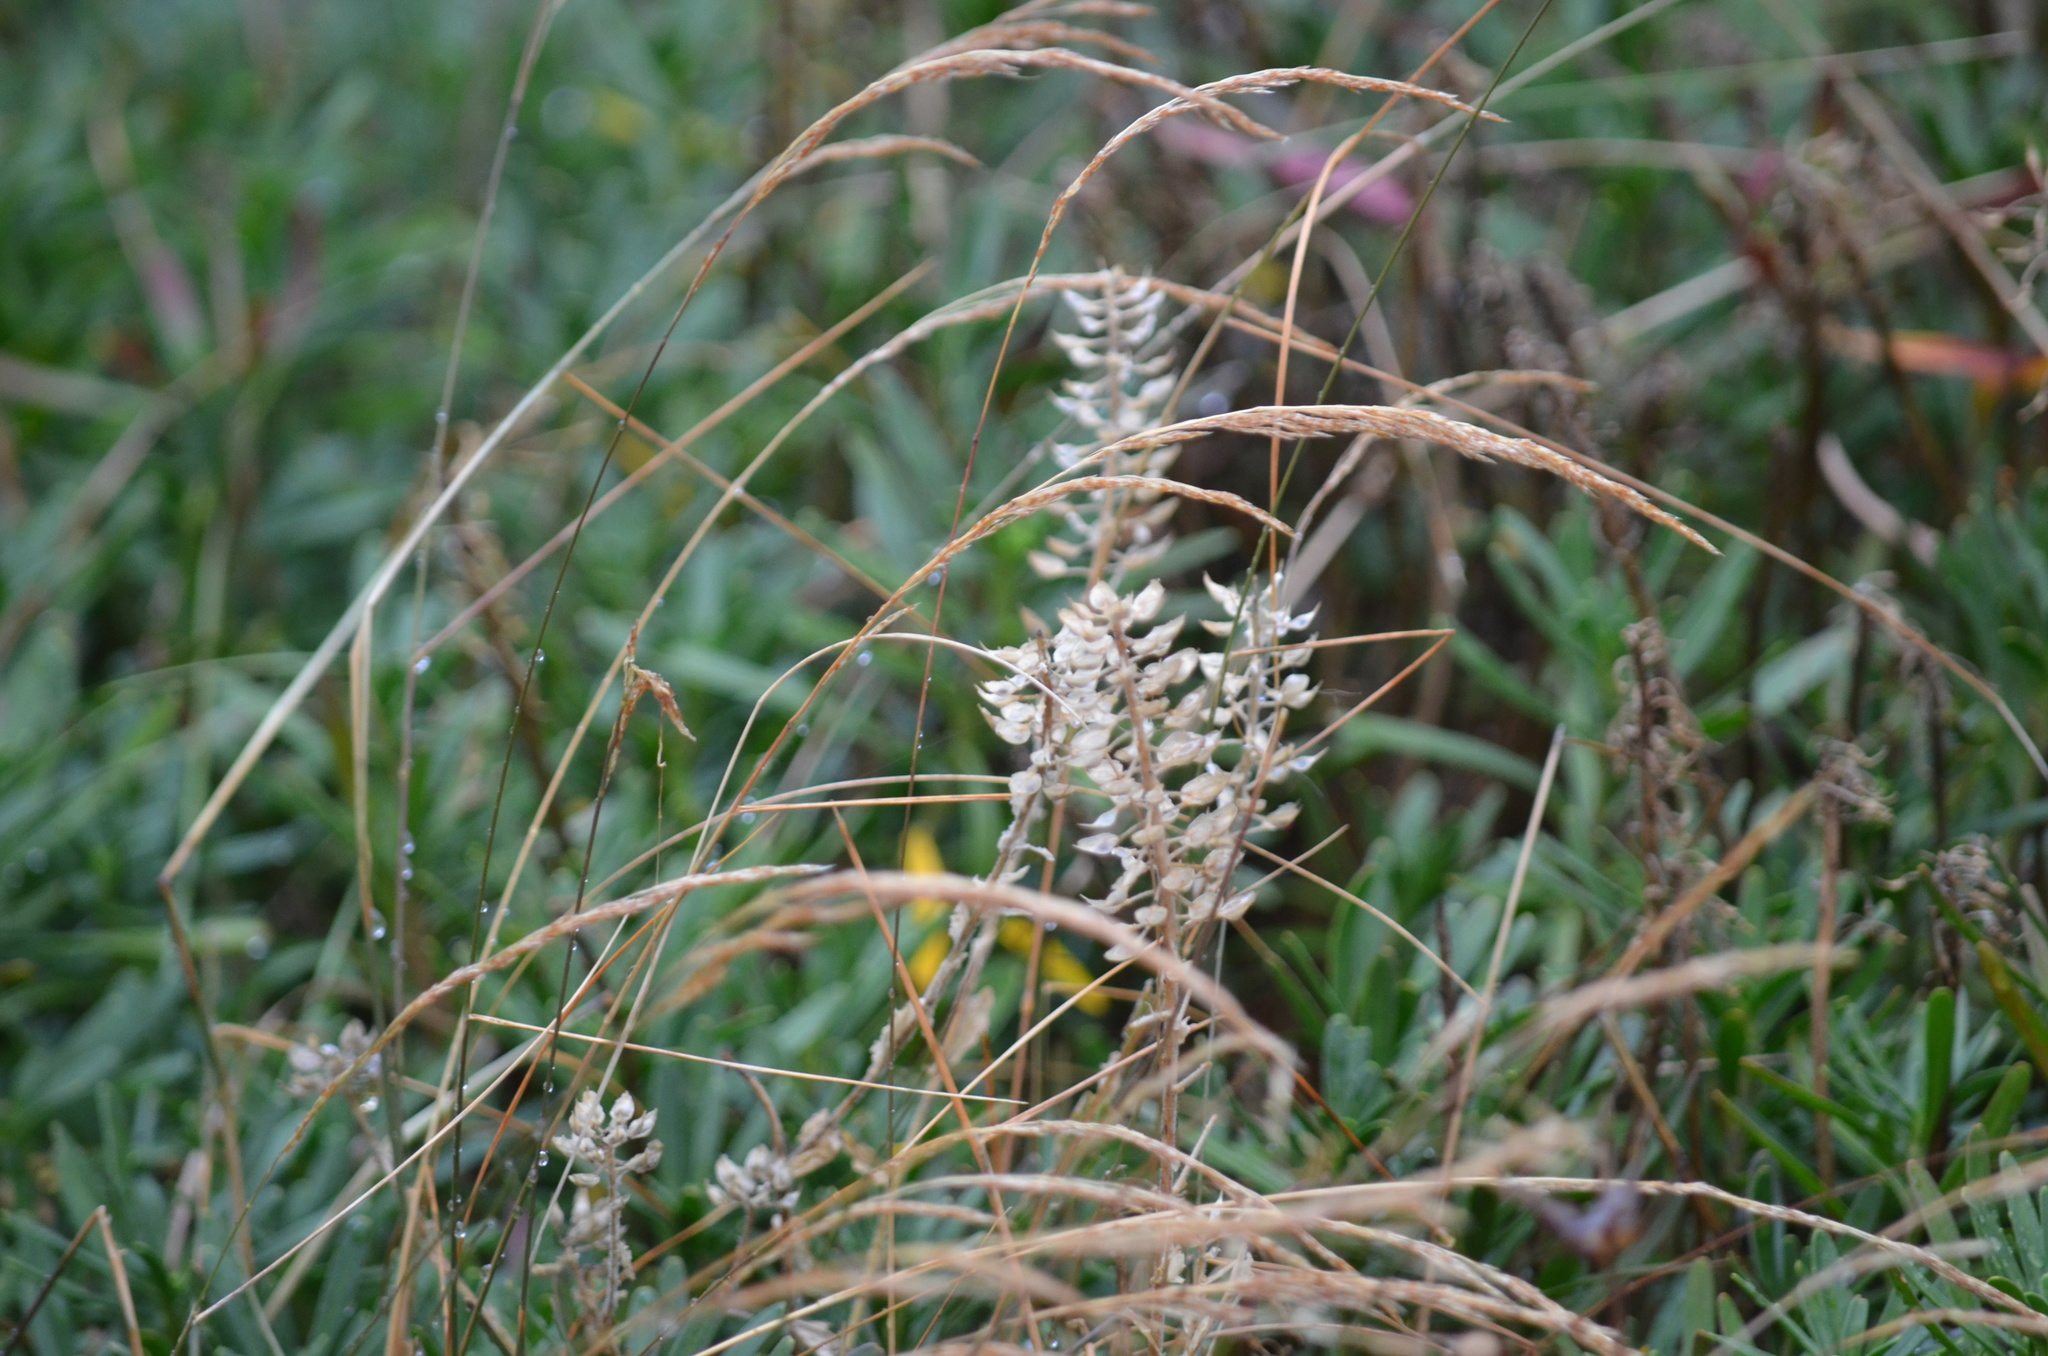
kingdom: Plantae
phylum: Tracheophyta
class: Magnoliopsida
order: Brassicales
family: Brassicaceae
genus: Lepidium
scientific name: Lepidium campestre
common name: Field pepperwort
